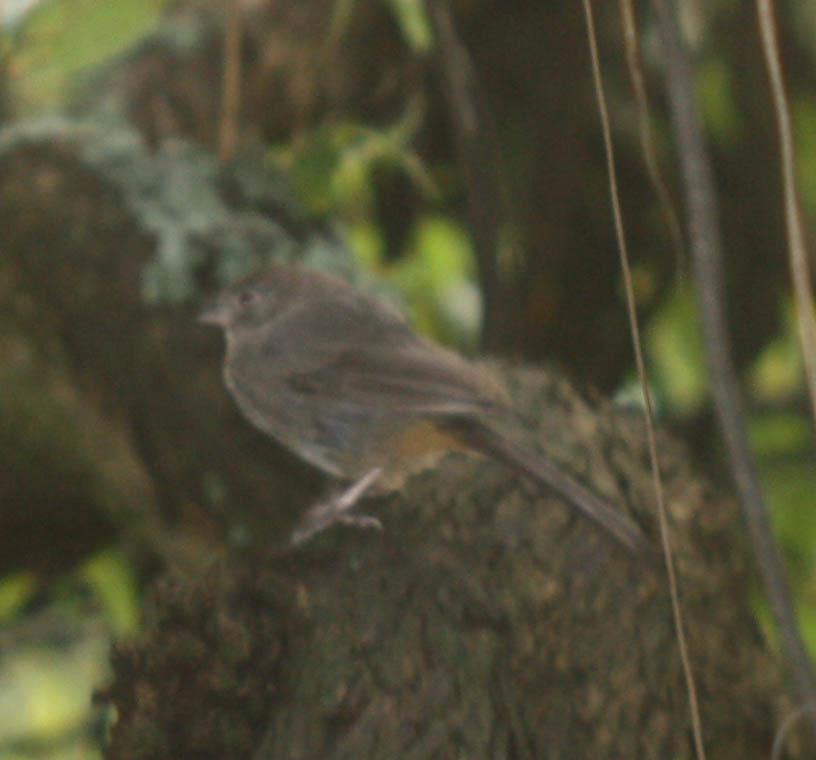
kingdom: Animalia
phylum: Chordata
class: Aves
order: Passeriformes
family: Passerellidae
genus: Melozone
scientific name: Melozone fusca
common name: Canyon towhee
